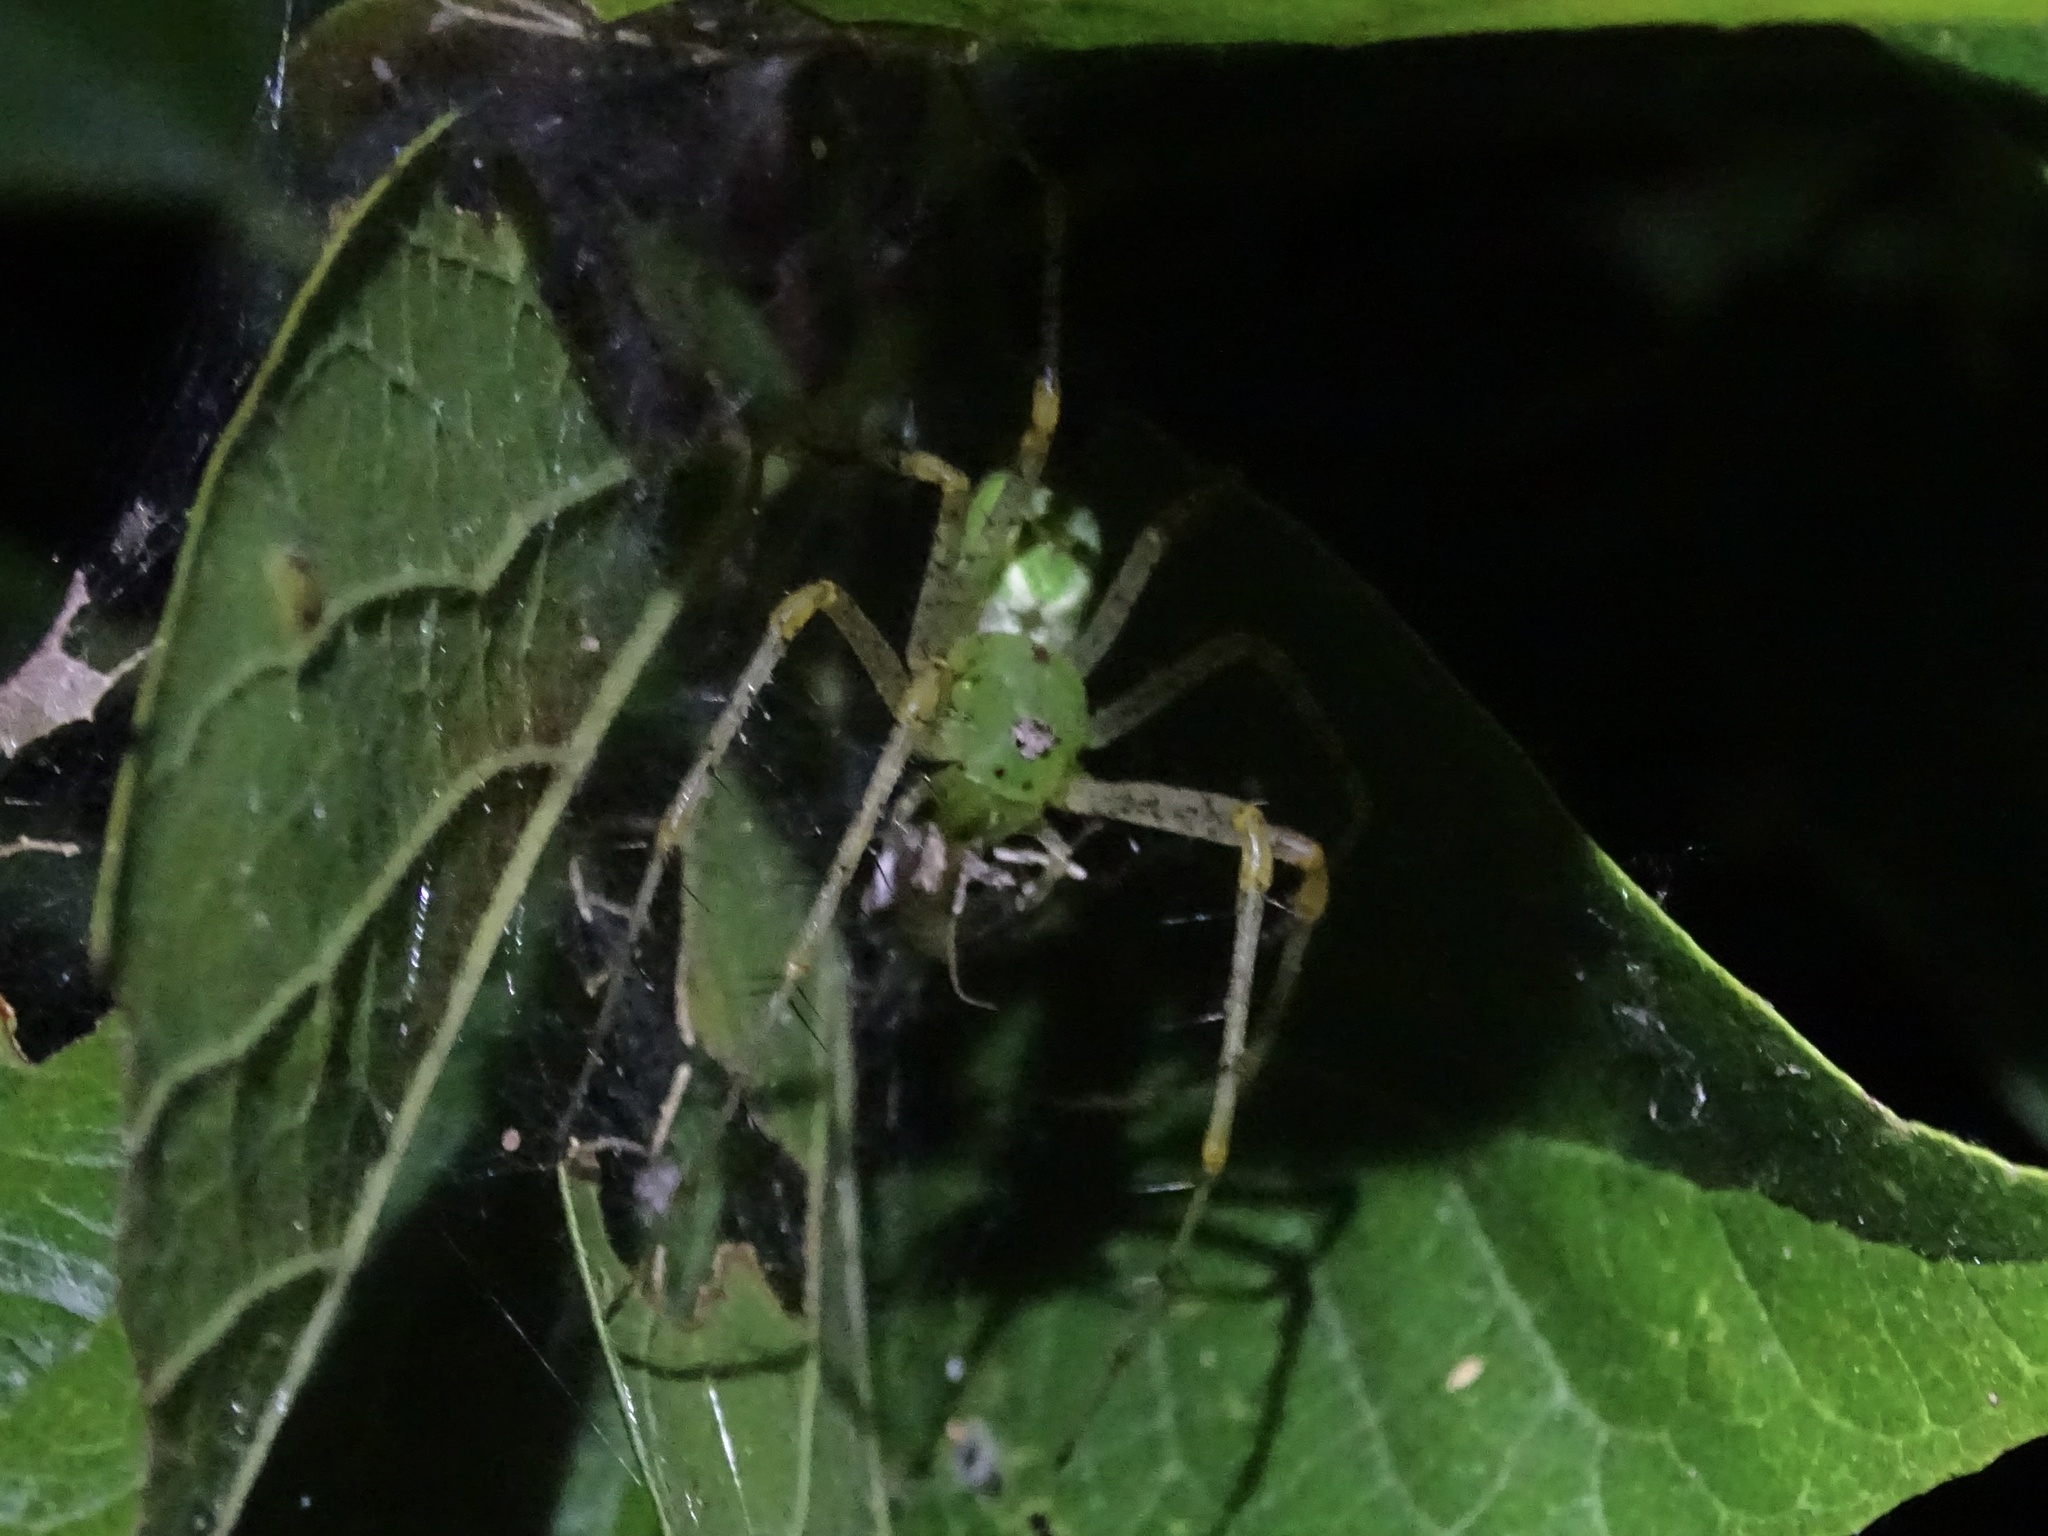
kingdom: Animalia
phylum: Arthropoda
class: Arachnida
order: Araneae
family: Oxyopidae
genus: Peucetia
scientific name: Peucetia viridans
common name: Lynx spiders
